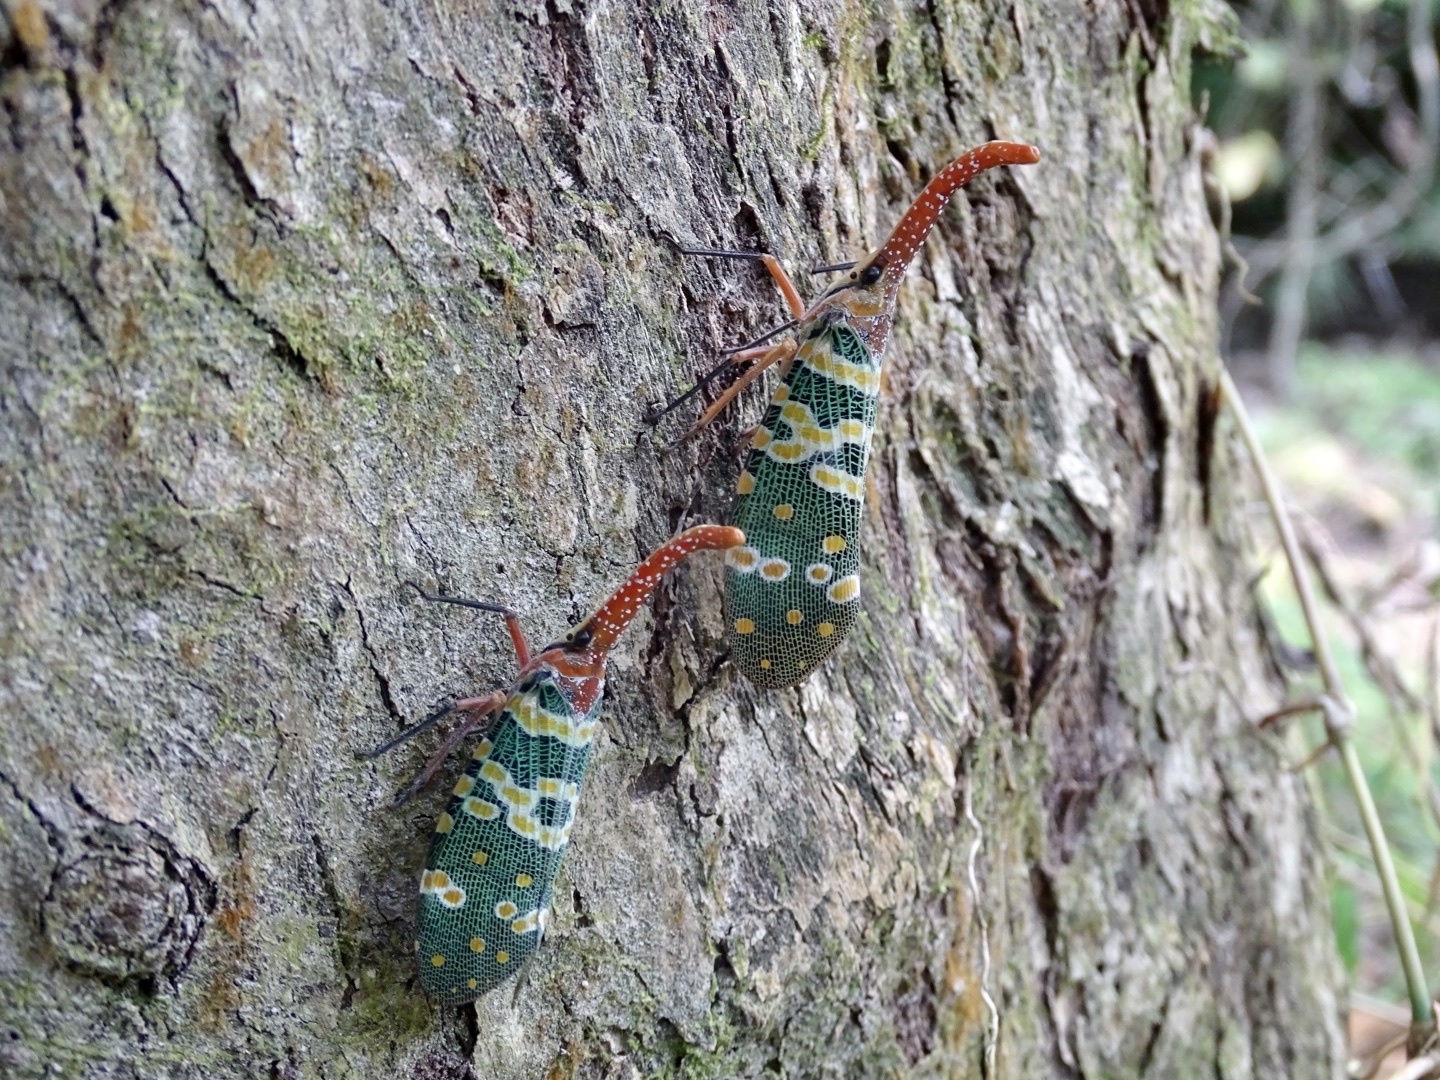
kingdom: Animalia
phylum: Arthropoda
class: Insecta
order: Hemiptera
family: Fulgoridae
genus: Pyrops
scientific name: Pyrops candelaria
